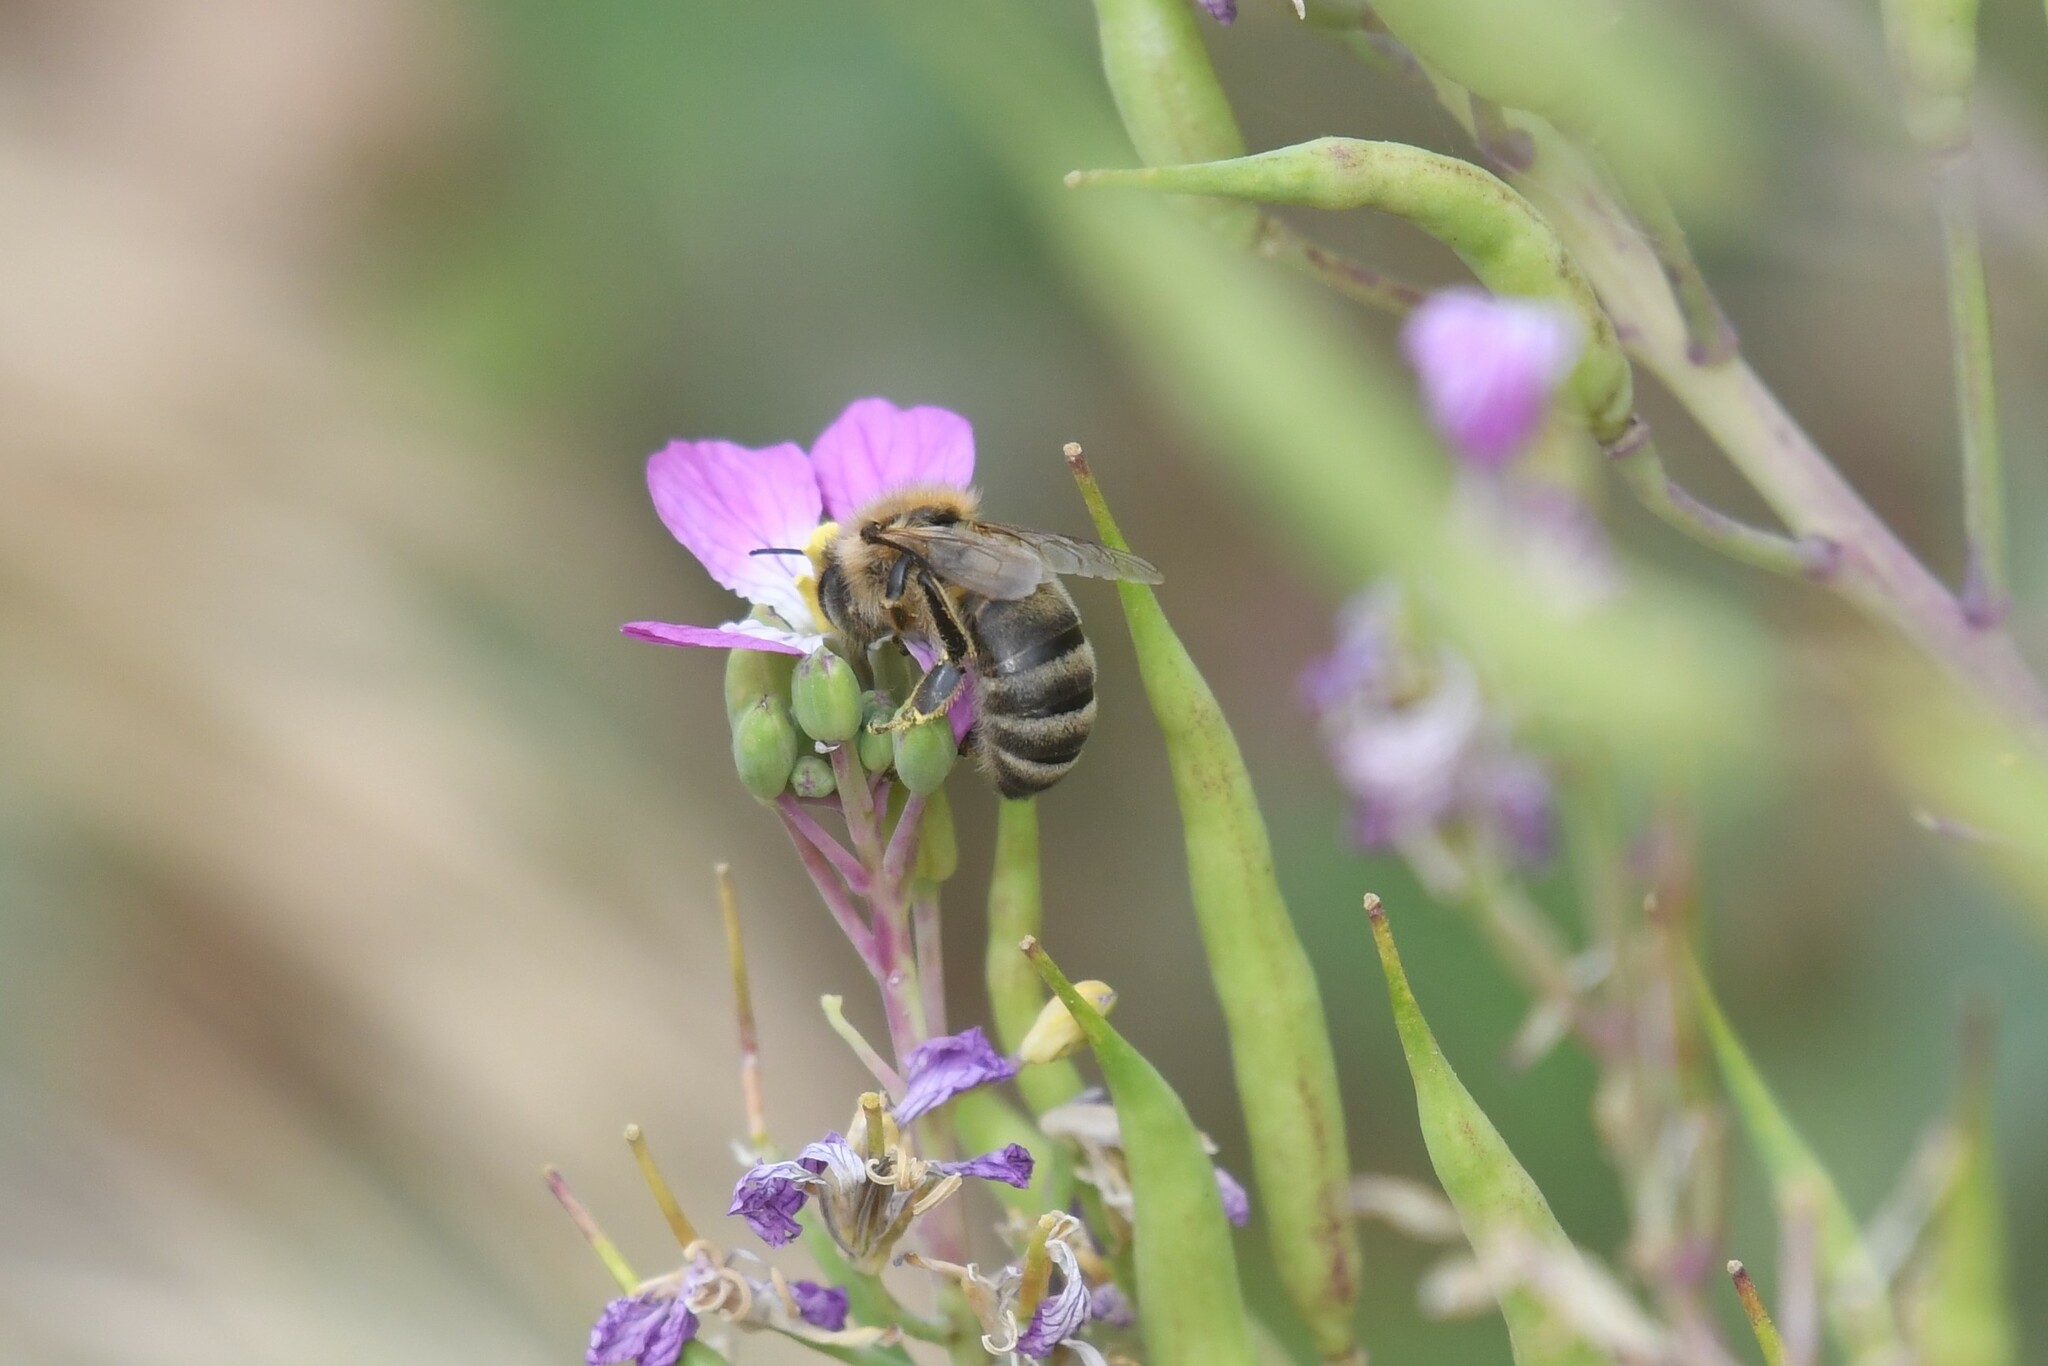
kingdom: Animalia
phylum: Arthropoda
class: Insecta
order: Hymenoptera
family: Apidae
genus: Apis
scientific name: Apis mellifera
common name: Honey bee
